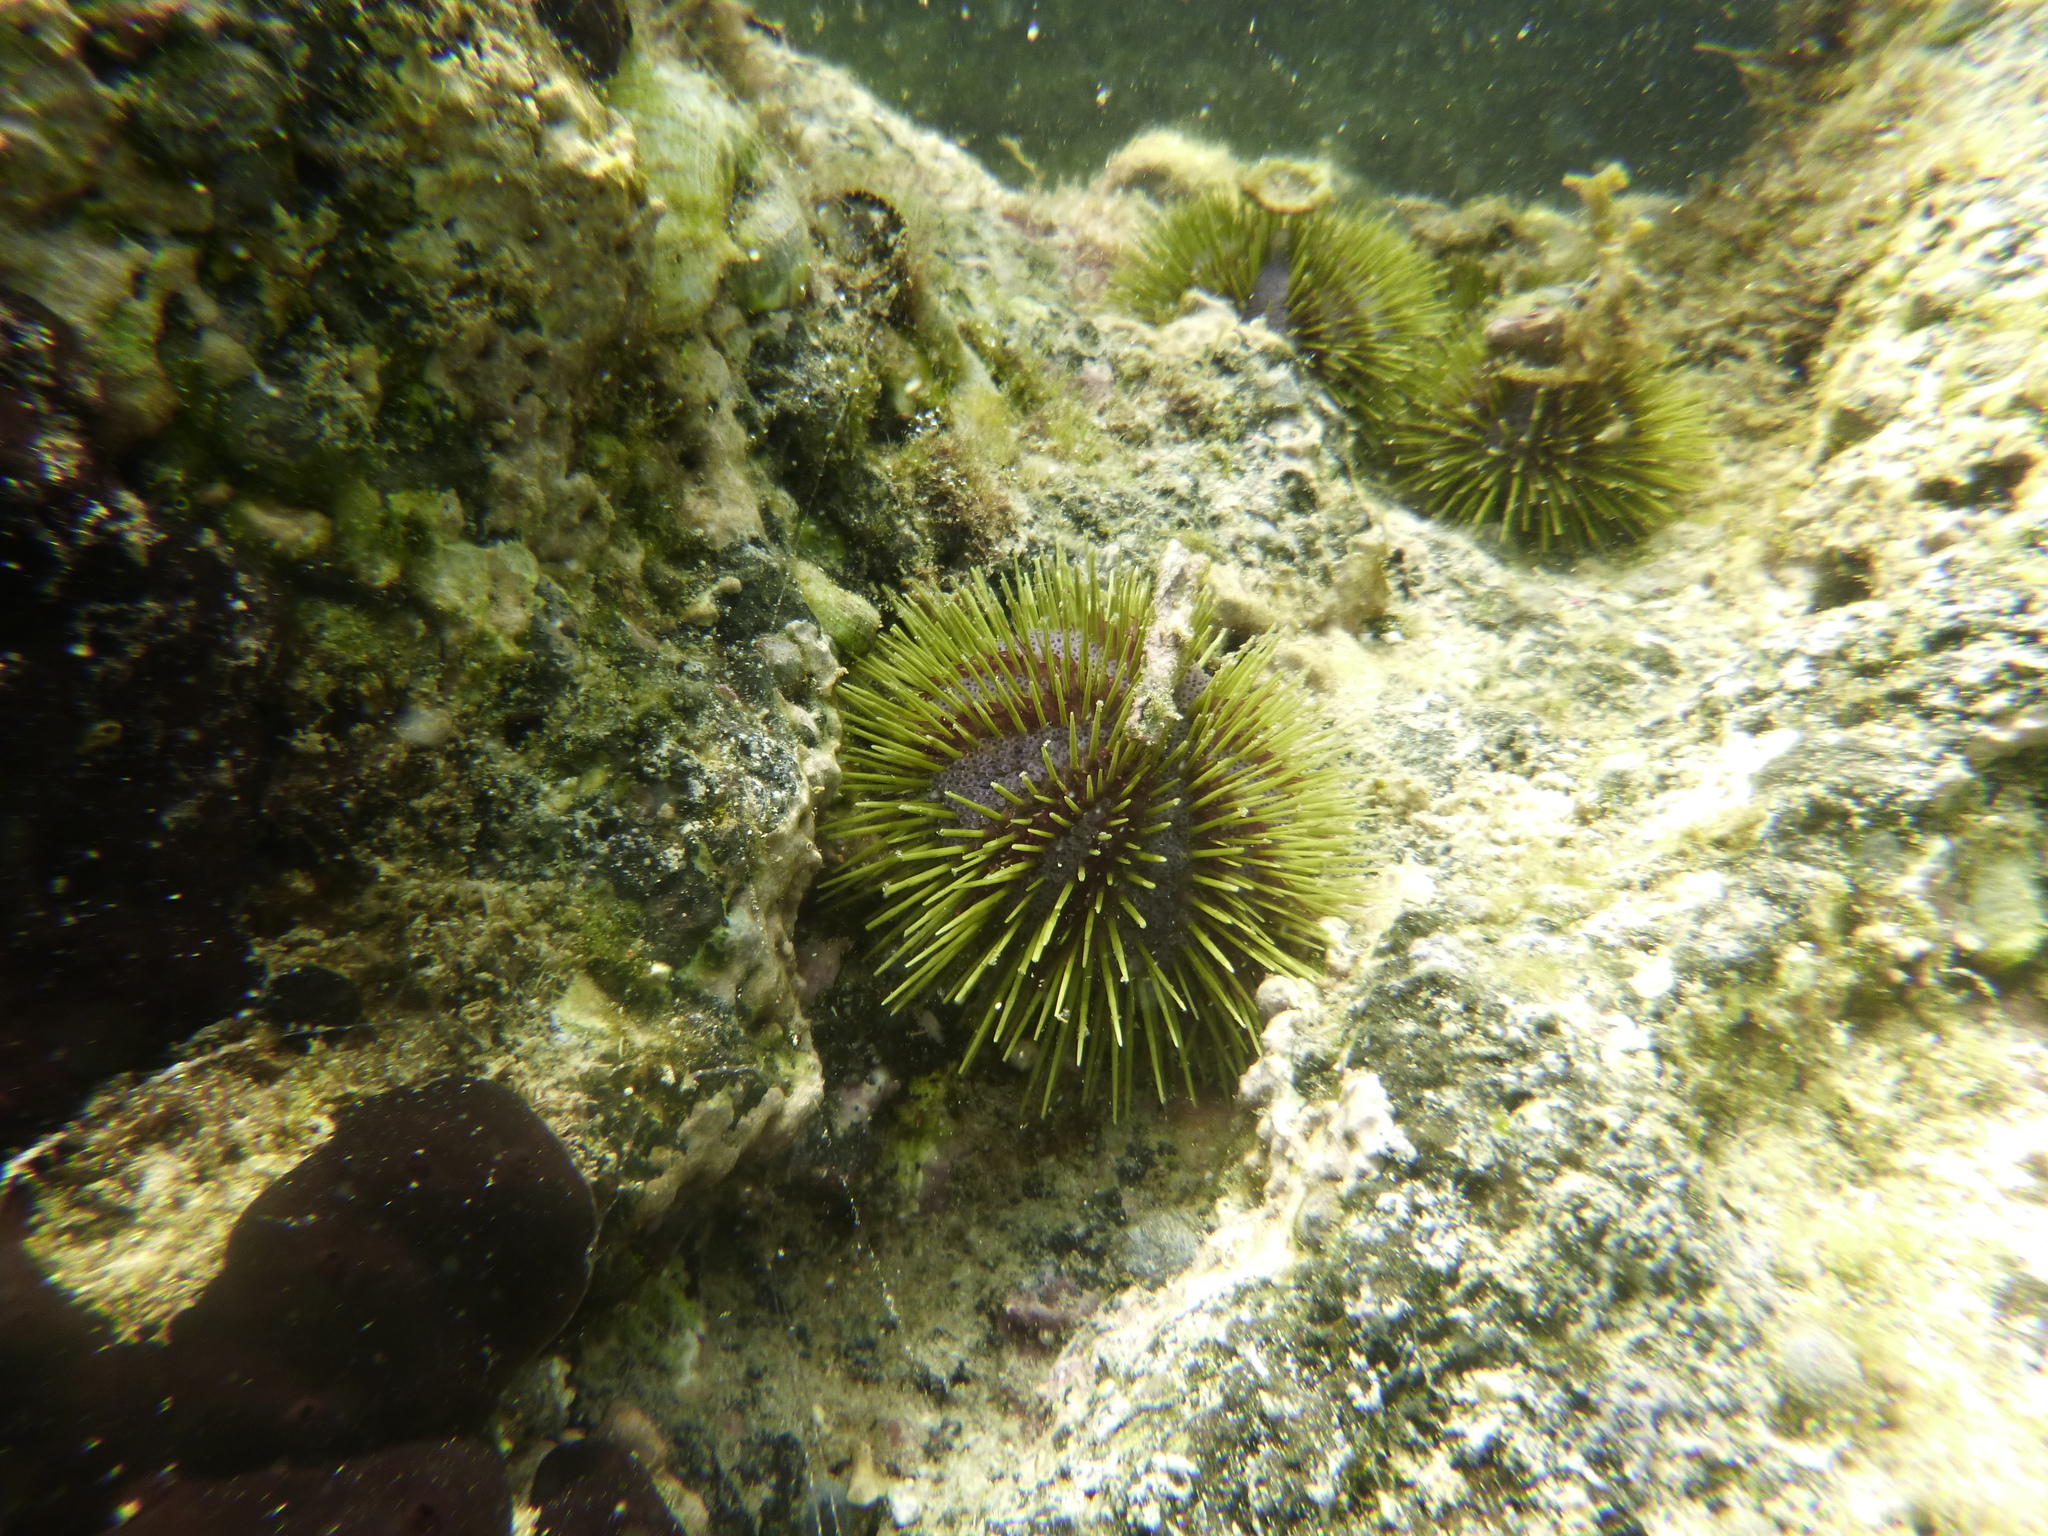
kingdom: Animalia
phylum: Echinodermata
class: Echinoidea
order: Camarodonta
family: Toxopneustidae
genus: Lytechinus
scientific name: Lytechinus semituberculatus
